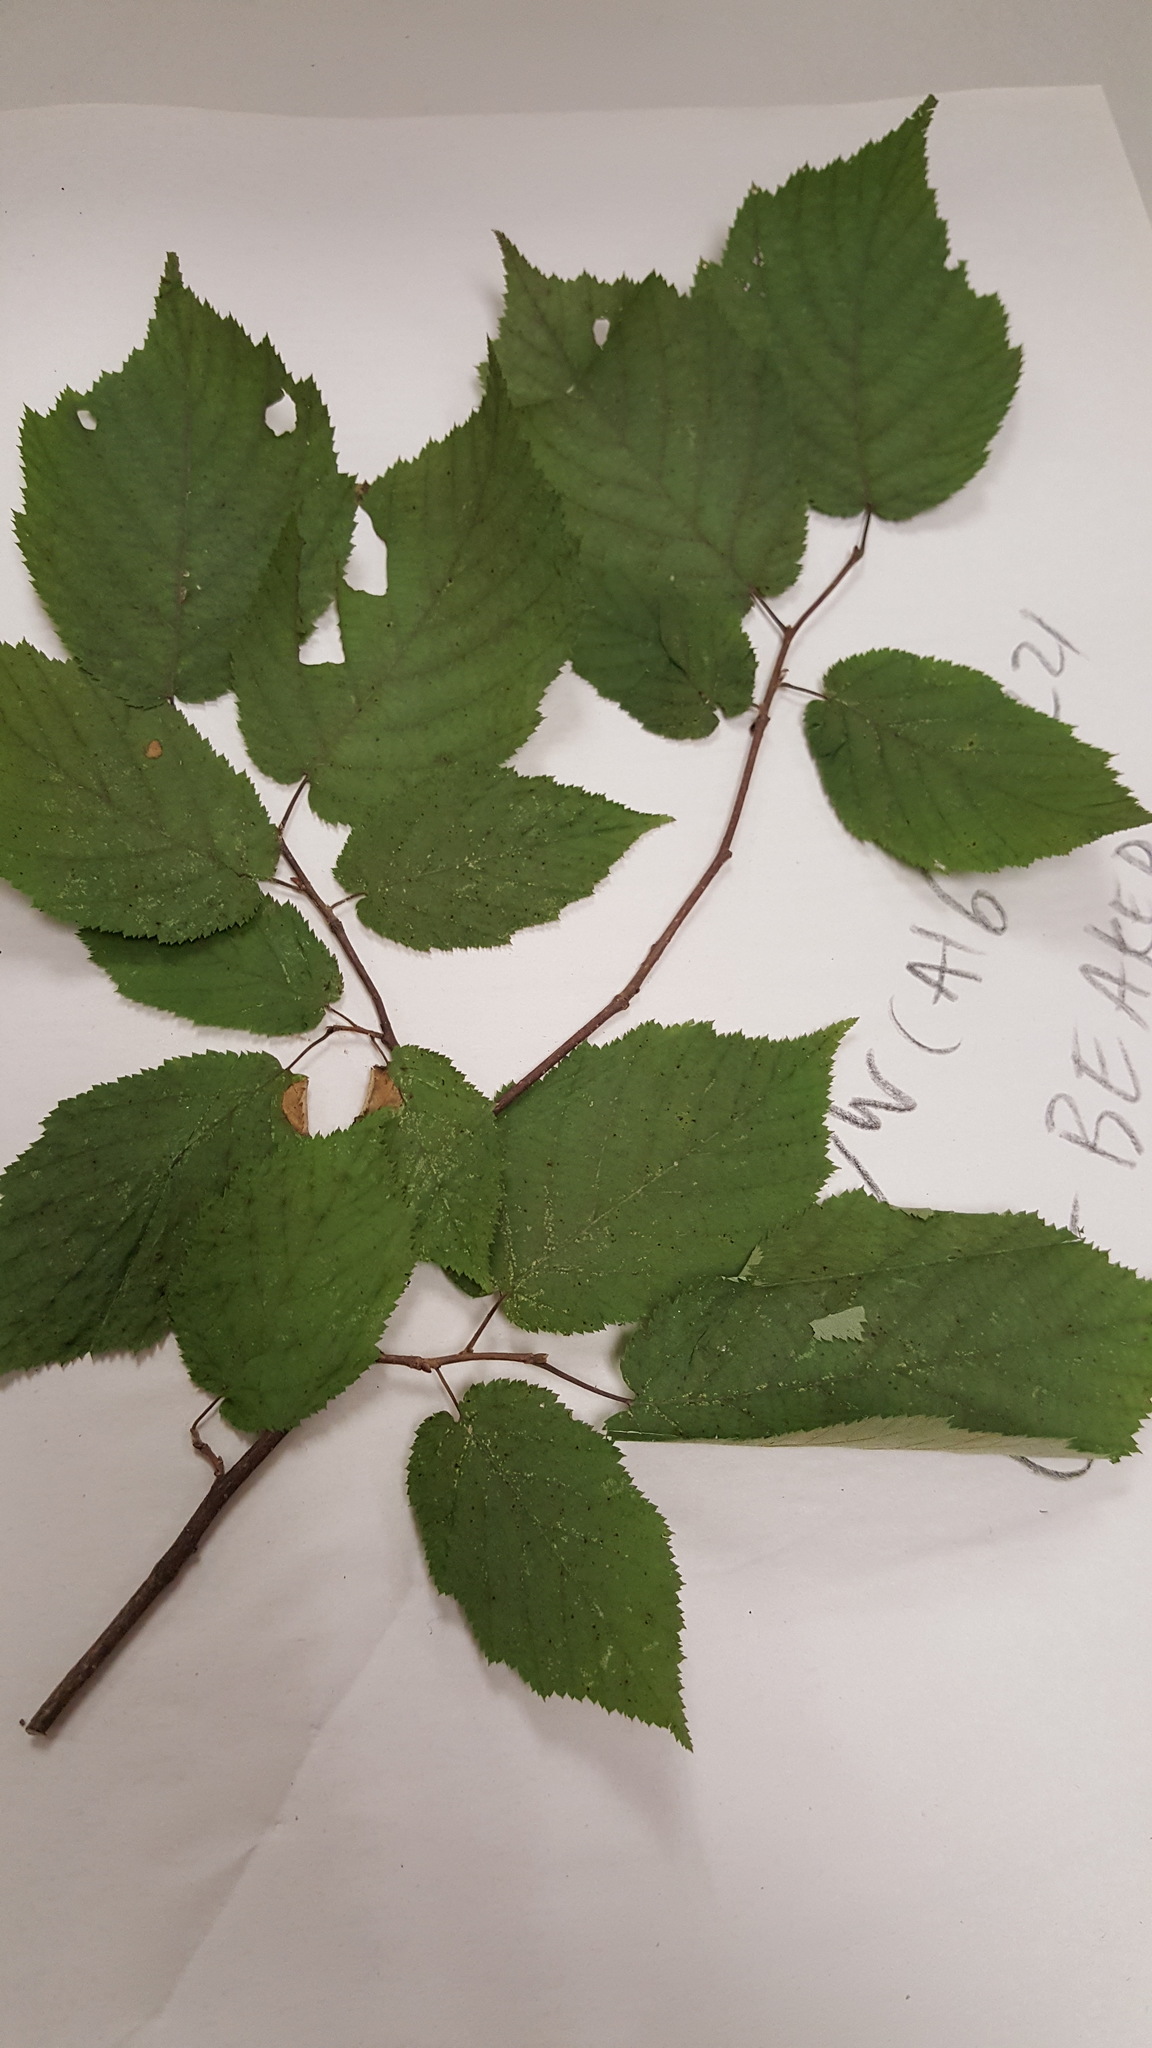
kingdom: Plantae
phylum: Tracheophyta
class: Magnoliopsida
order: Fagales
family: Betulaceae
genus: Corylus
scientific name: Corylus cornuta
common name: Beaked hazel
